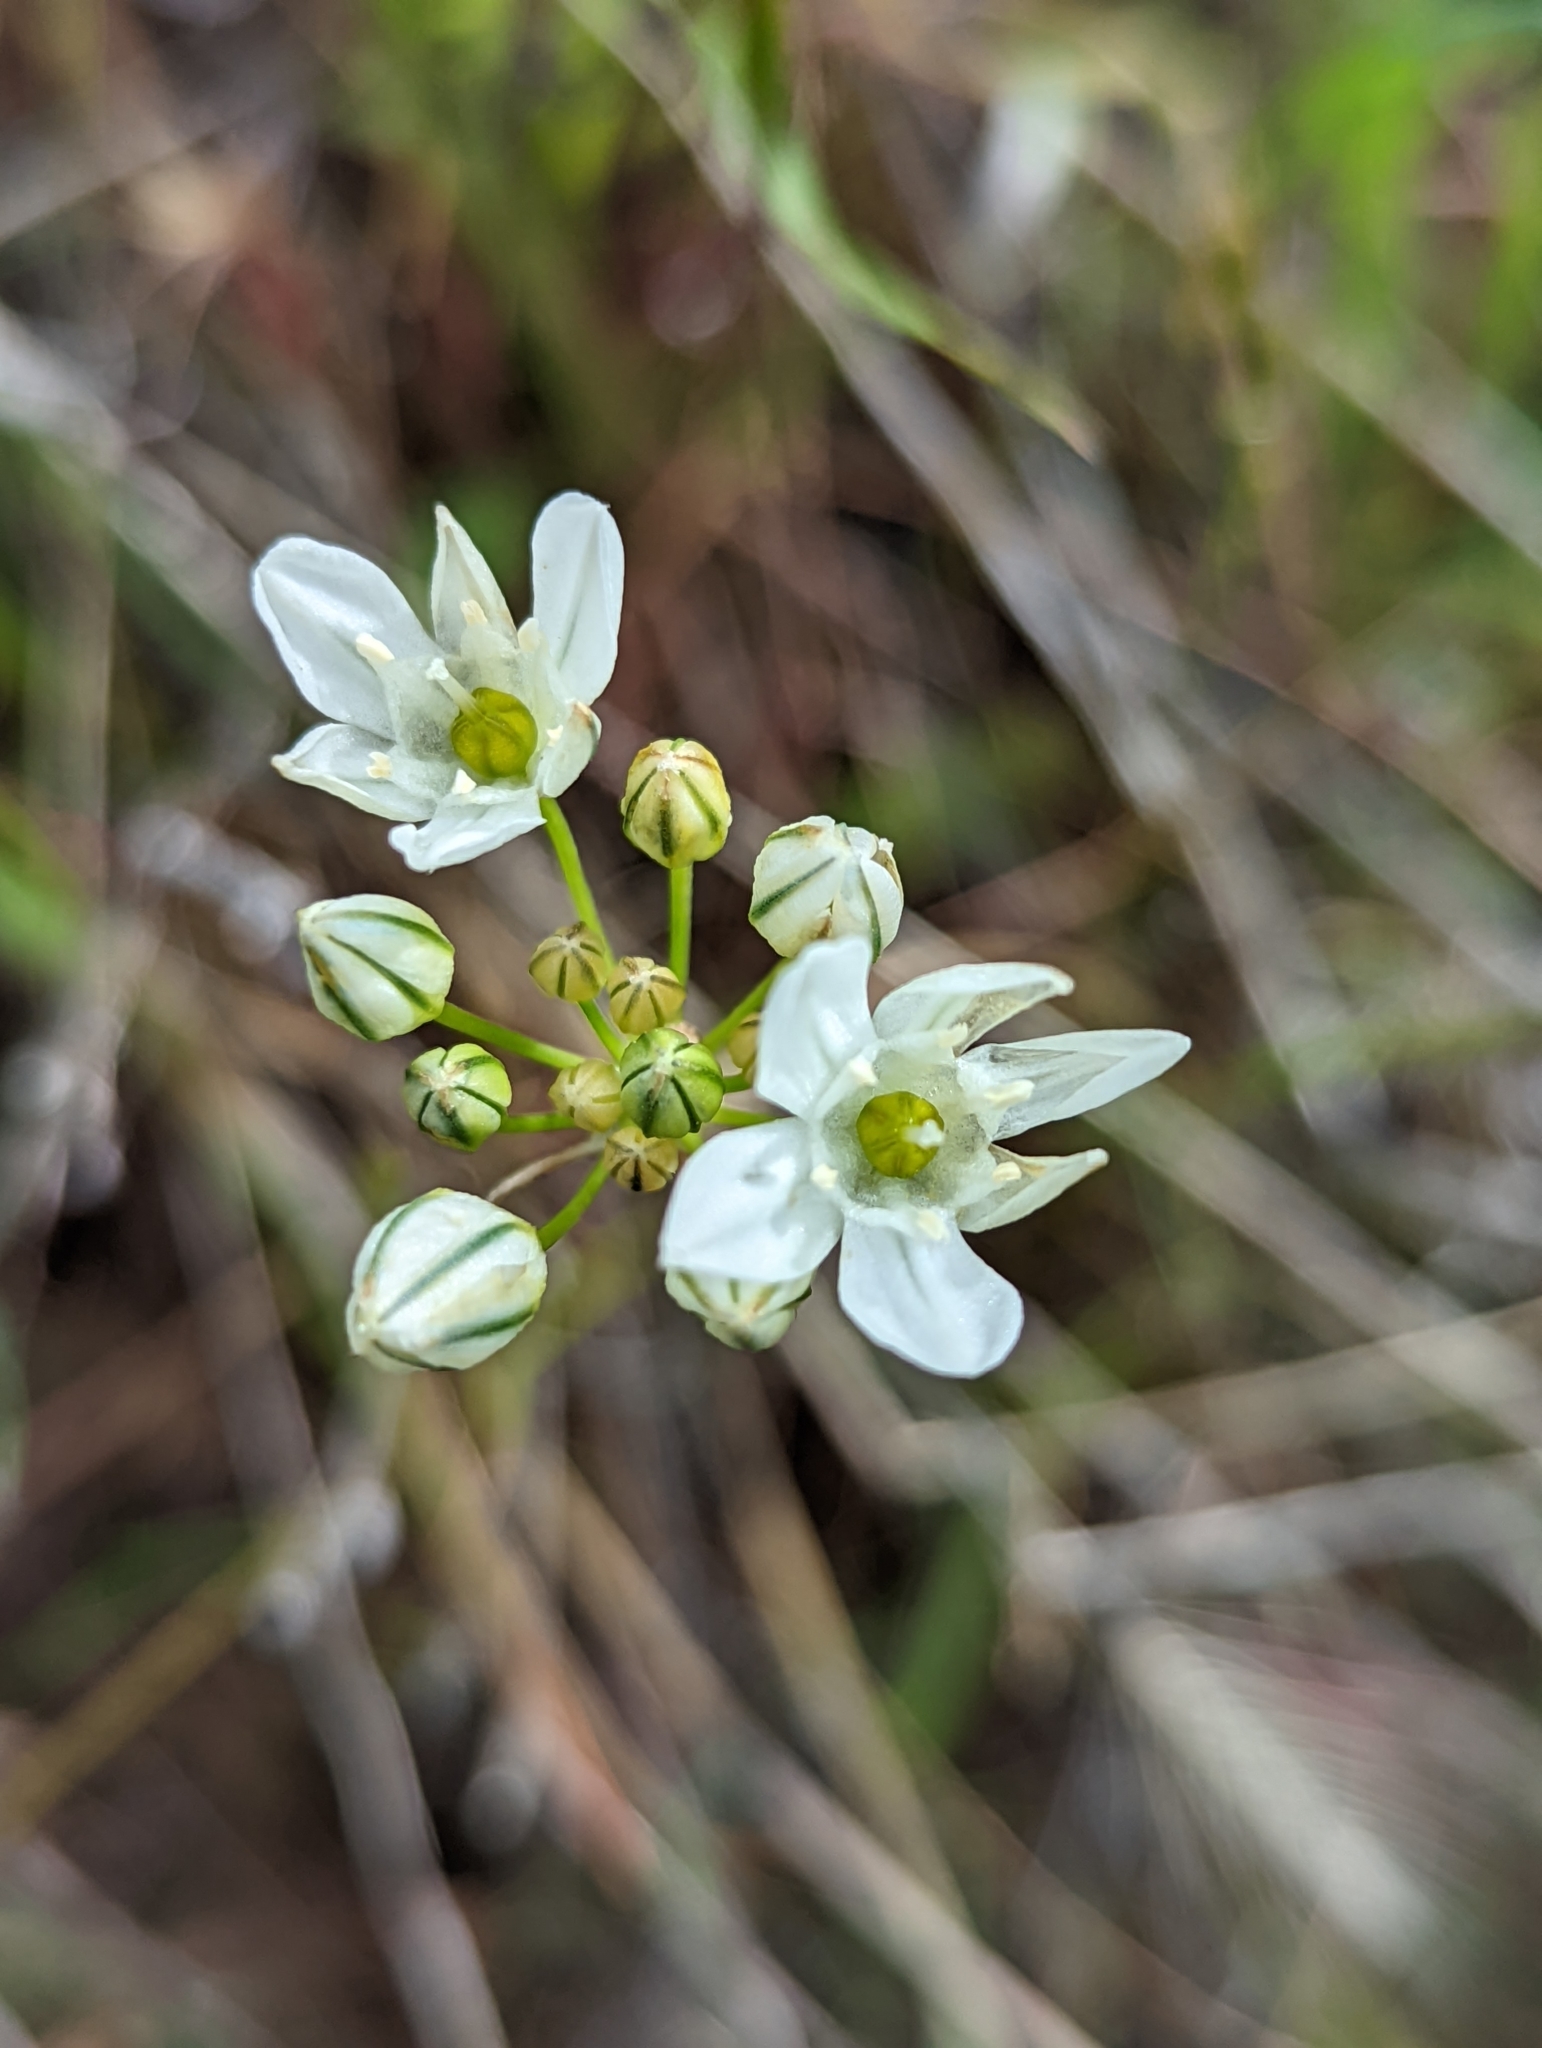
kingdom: Plantae
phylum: Tracheophyta
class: Liliopsida
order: Asparagales
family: Asparagaceae
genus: Triteleia
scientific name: Triteleia hyacinthina
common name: White brodiaea
